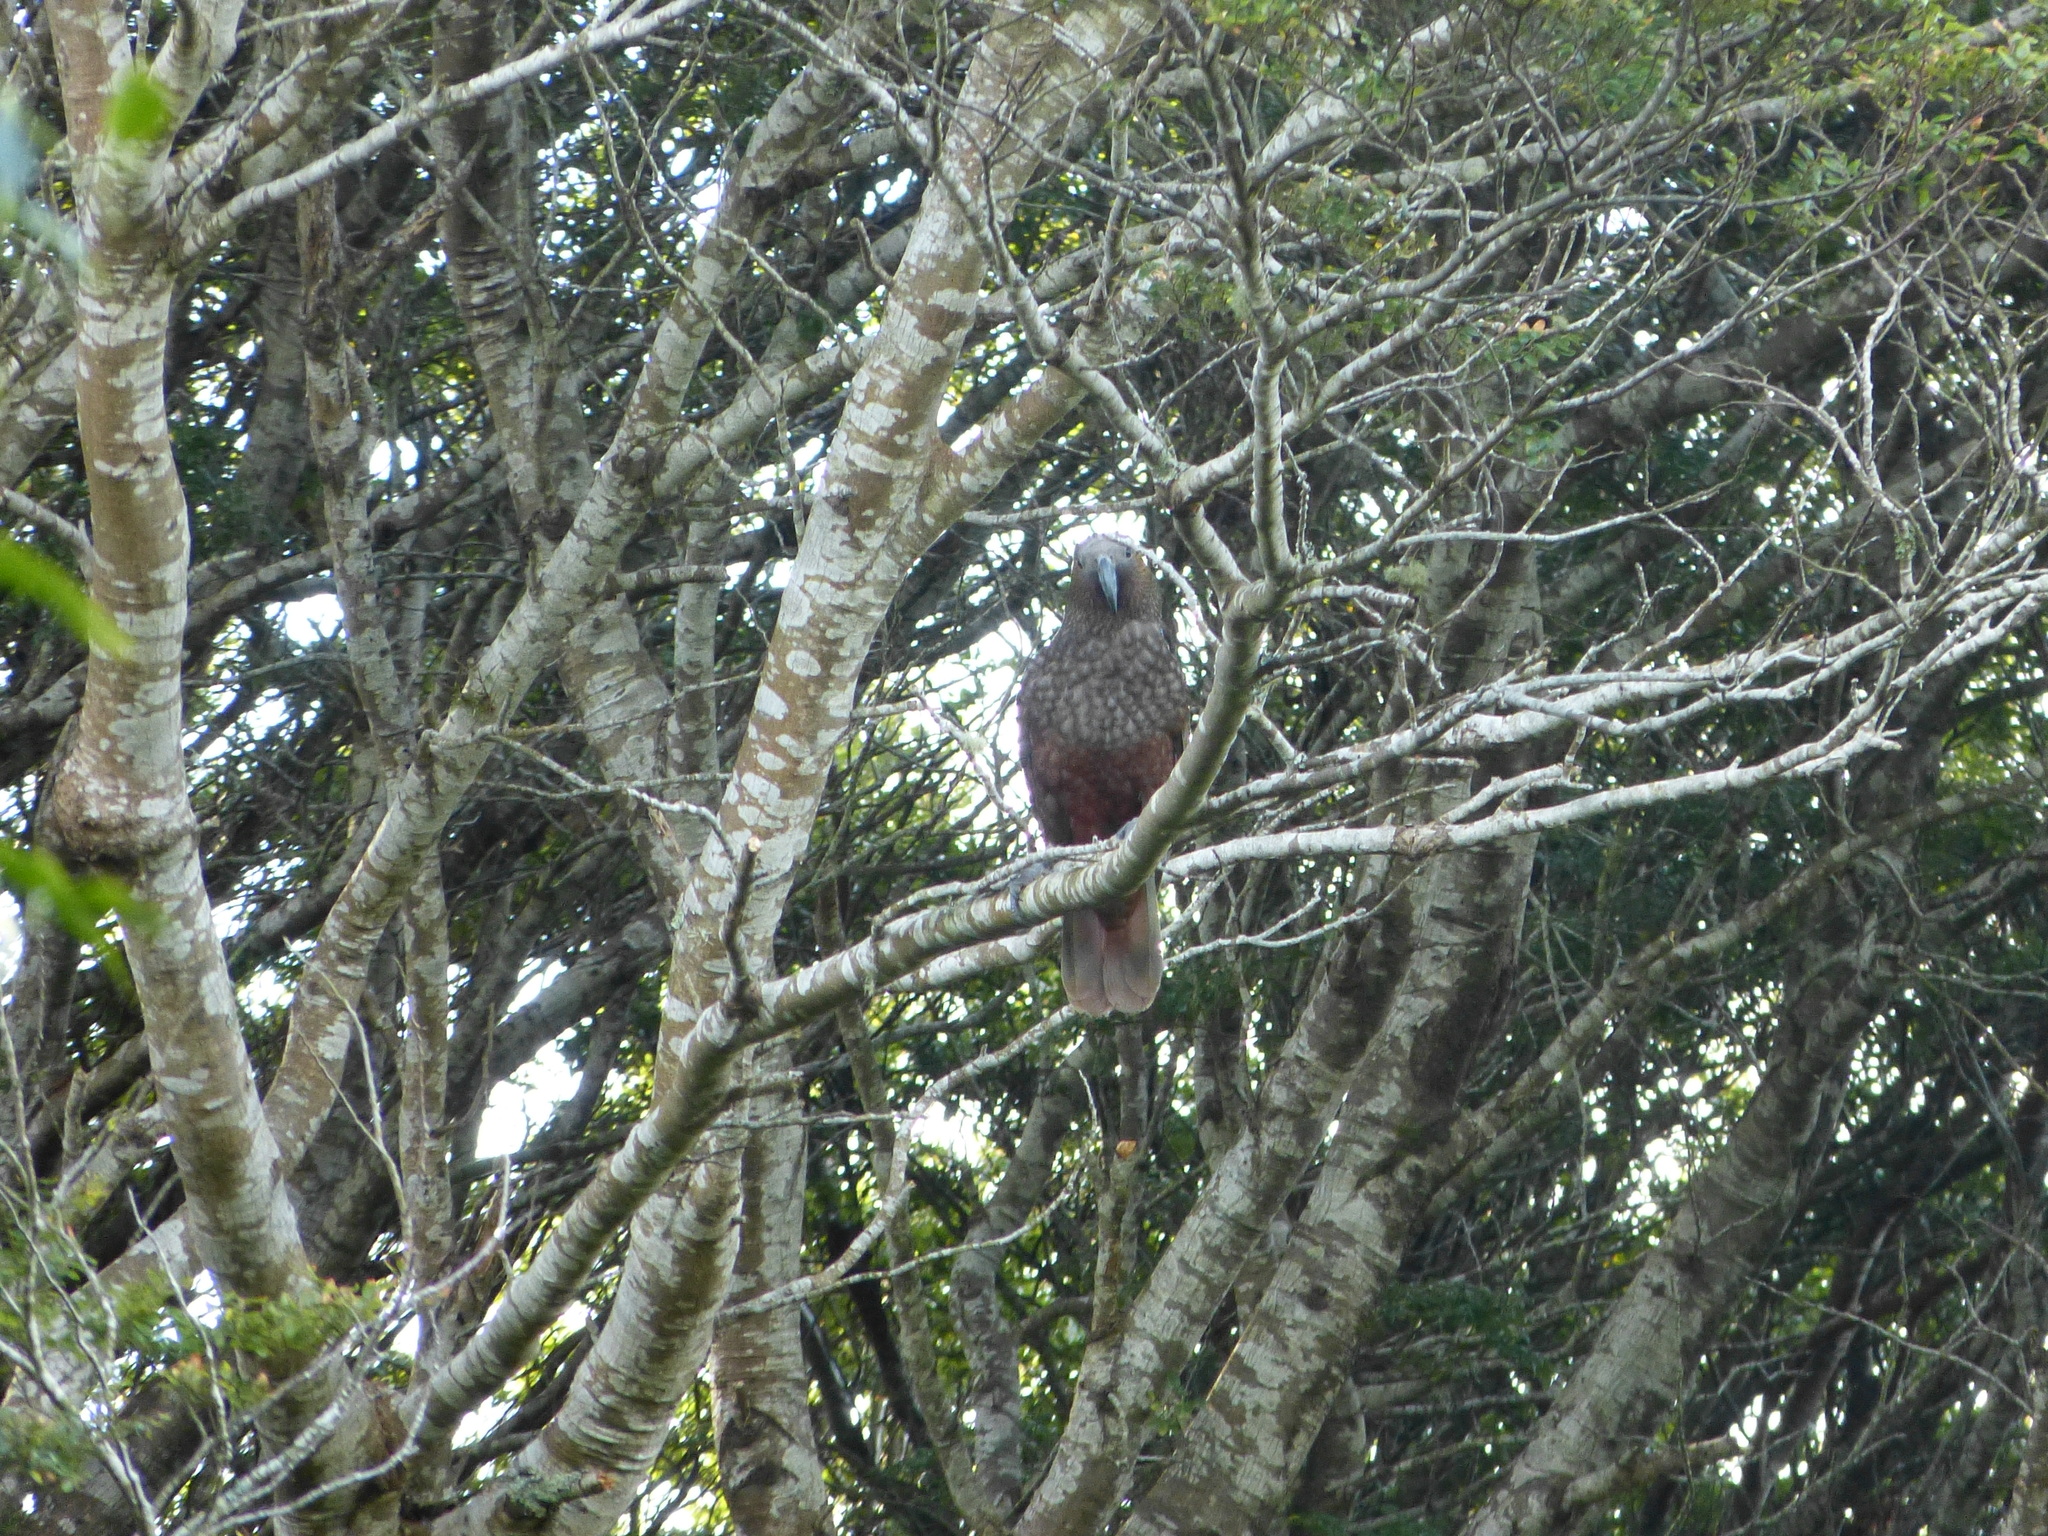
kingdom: Animalia
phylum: Chordata
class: Aves
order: Psittaciformes
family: Psittacidae
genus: Nestor
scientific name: Nestor meridionalis
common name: New zealand kaka
